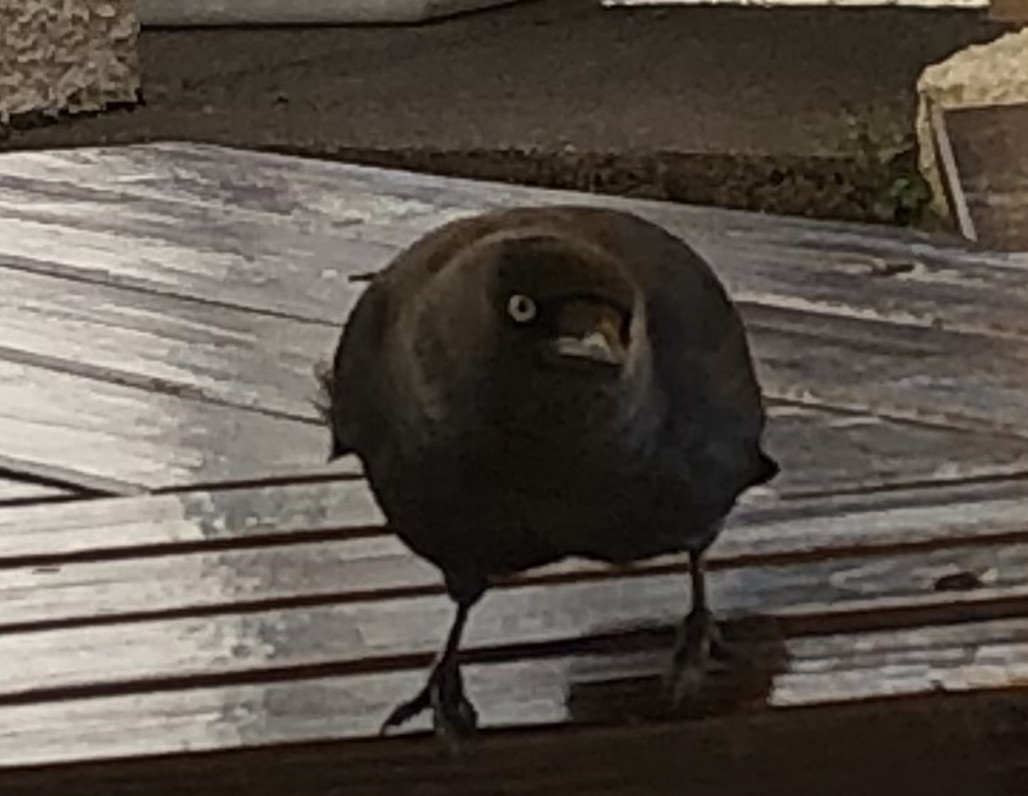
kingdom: Animalia
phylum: Chordata
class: Aves
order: Passeriformes
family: Corvidae
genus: Coloeus
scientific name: Coloeus monedula
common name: Western jackdaw
